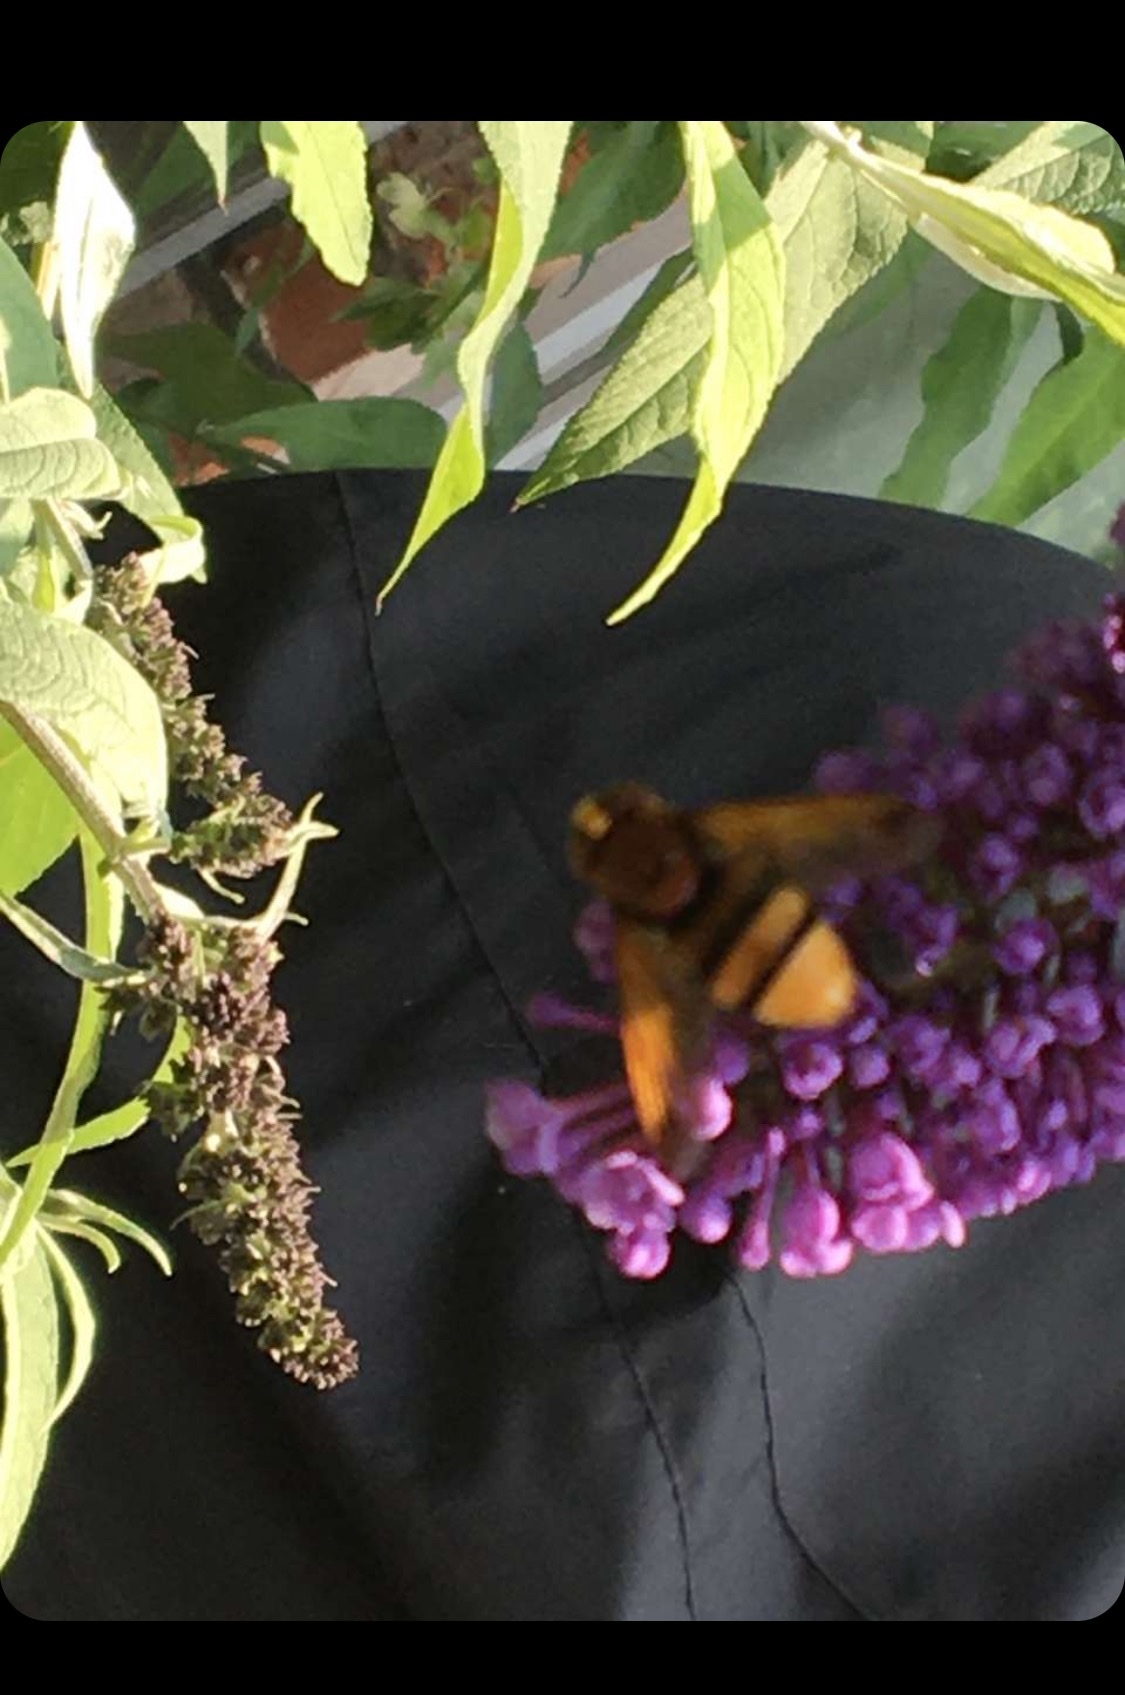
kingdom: Animalia
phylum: Arthropoda
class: Insecta
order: Diptera
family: Syrphidae
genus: Volucella
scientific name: Volucella zonaria
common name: Hornet hoverfly
